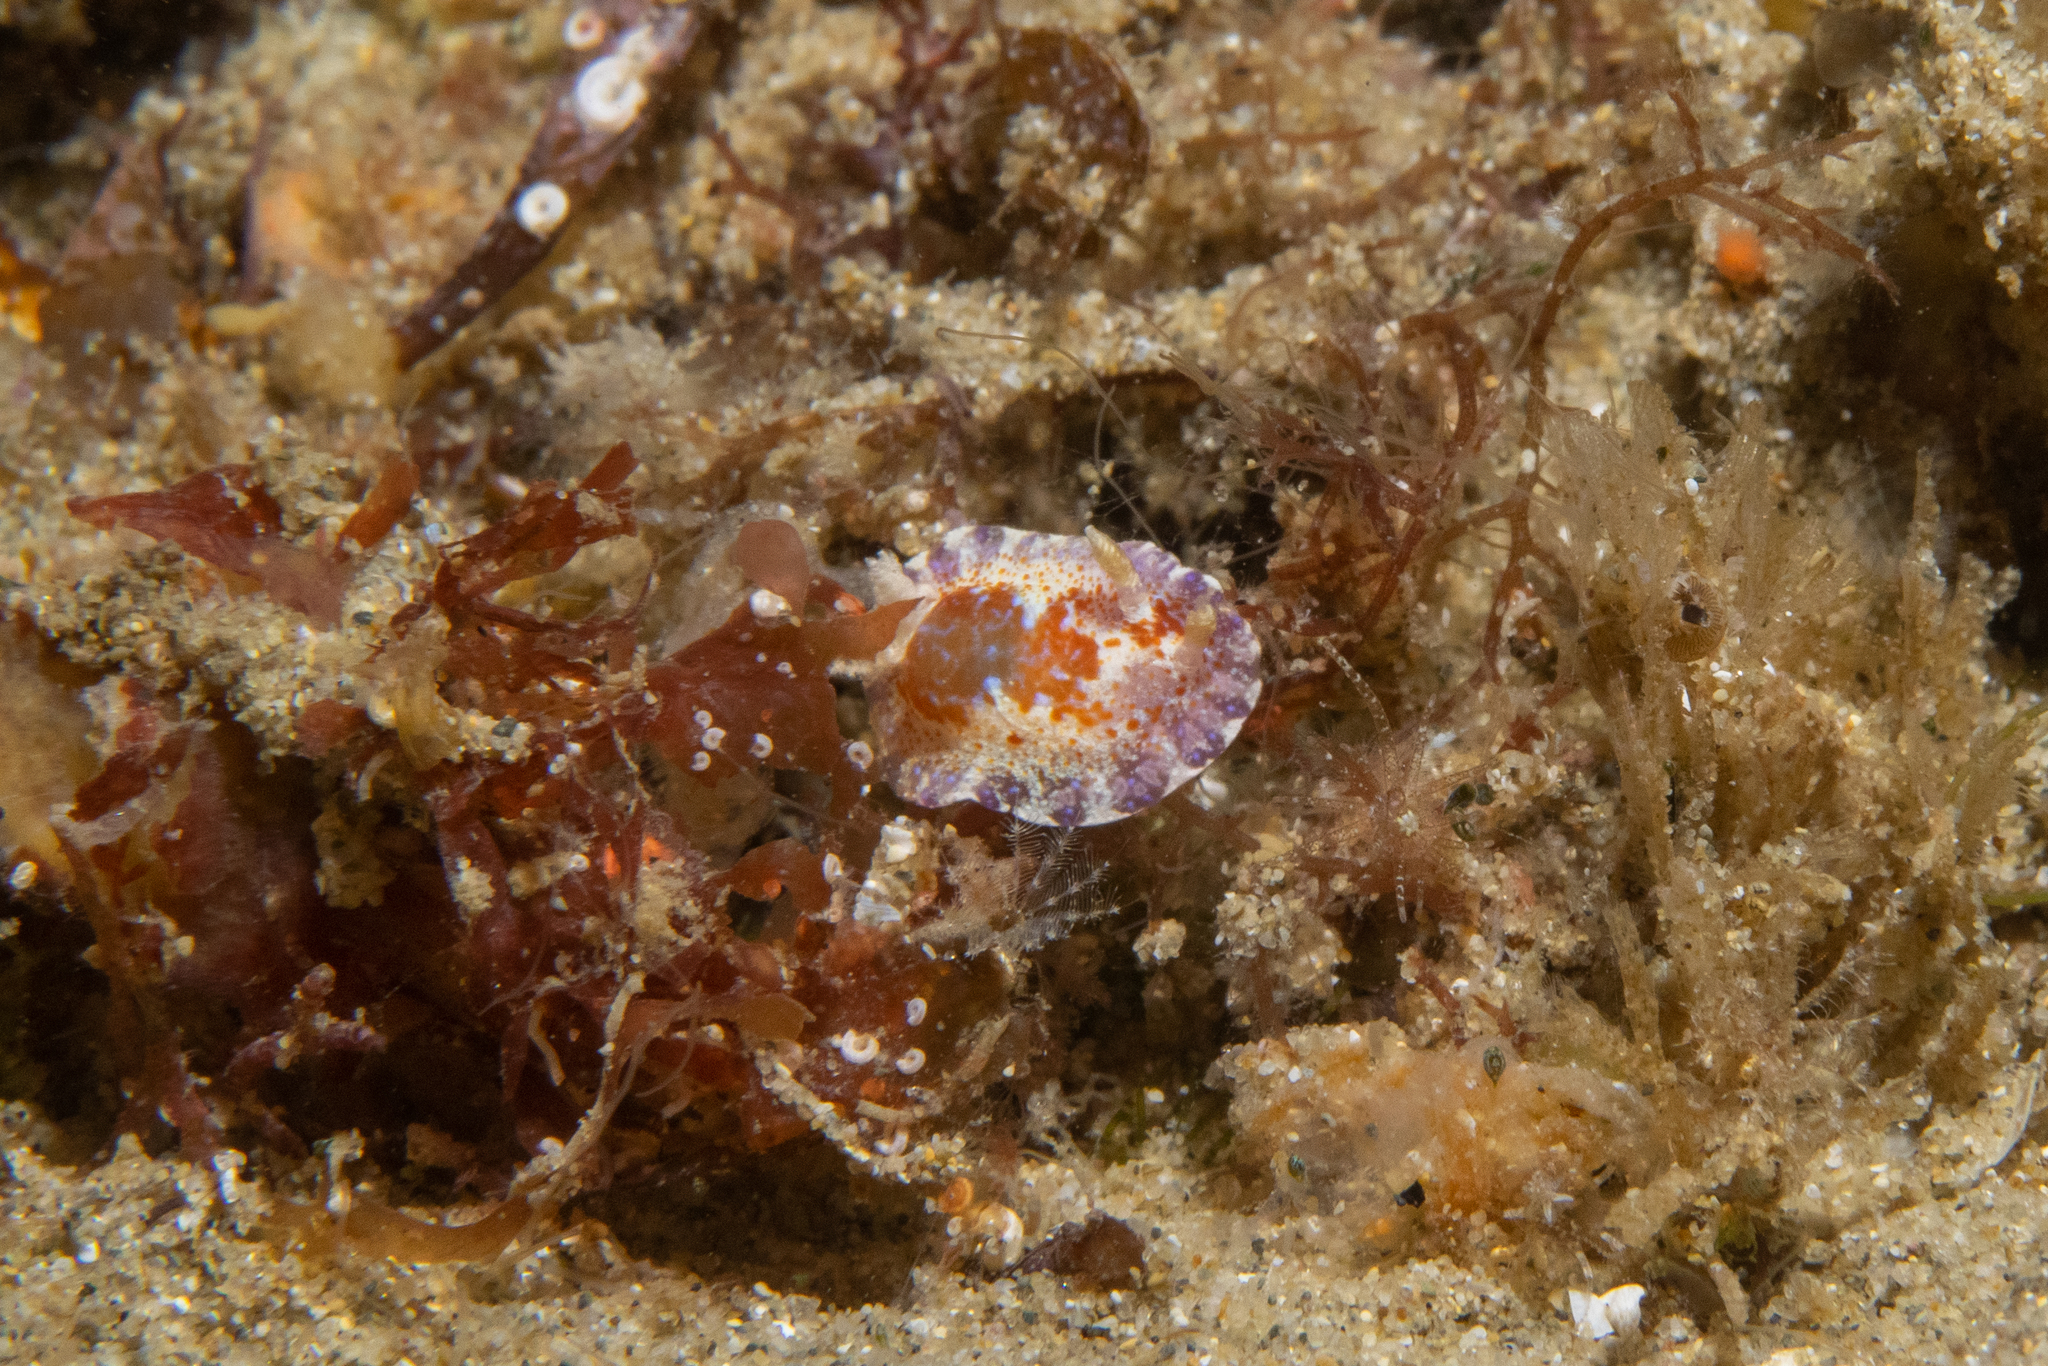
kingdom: Animalia
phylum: Mollusca
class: Gastropoda
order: Nudibranchia
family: Chromodorididae
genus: Chromodoris
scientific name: Chromodoris alternata
